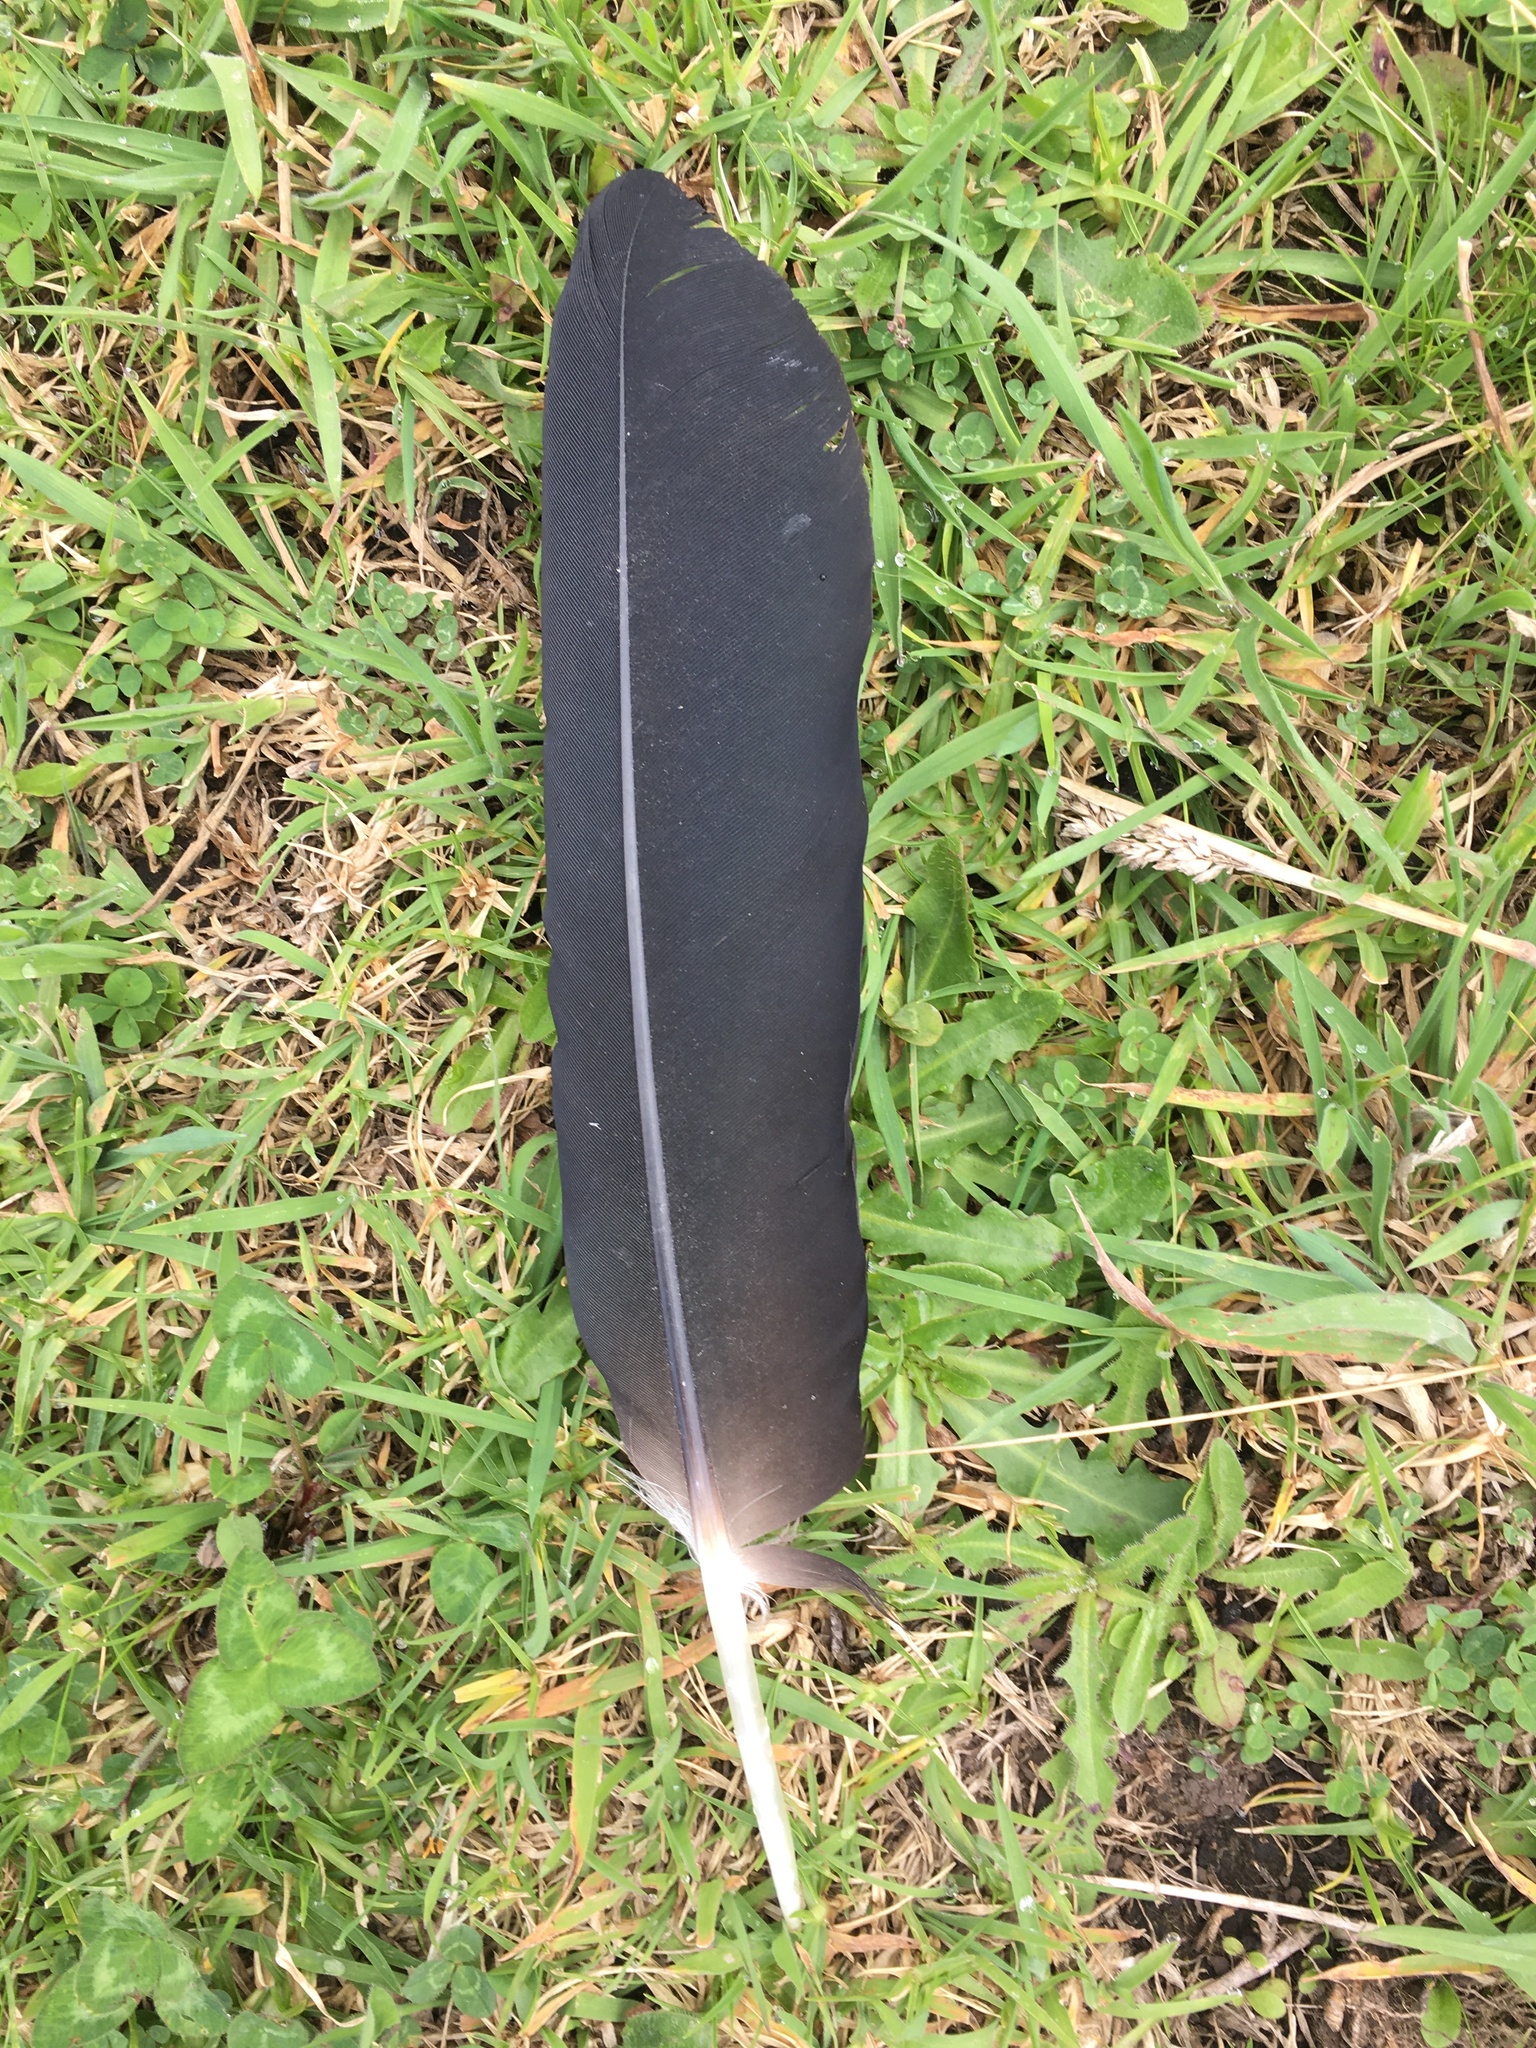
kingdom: Animalia
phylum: Chordata
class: Aves
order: Accipitriformes
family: Cathartidae
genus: Coragyps
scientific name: Coragyps atratus
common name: Black vulture
